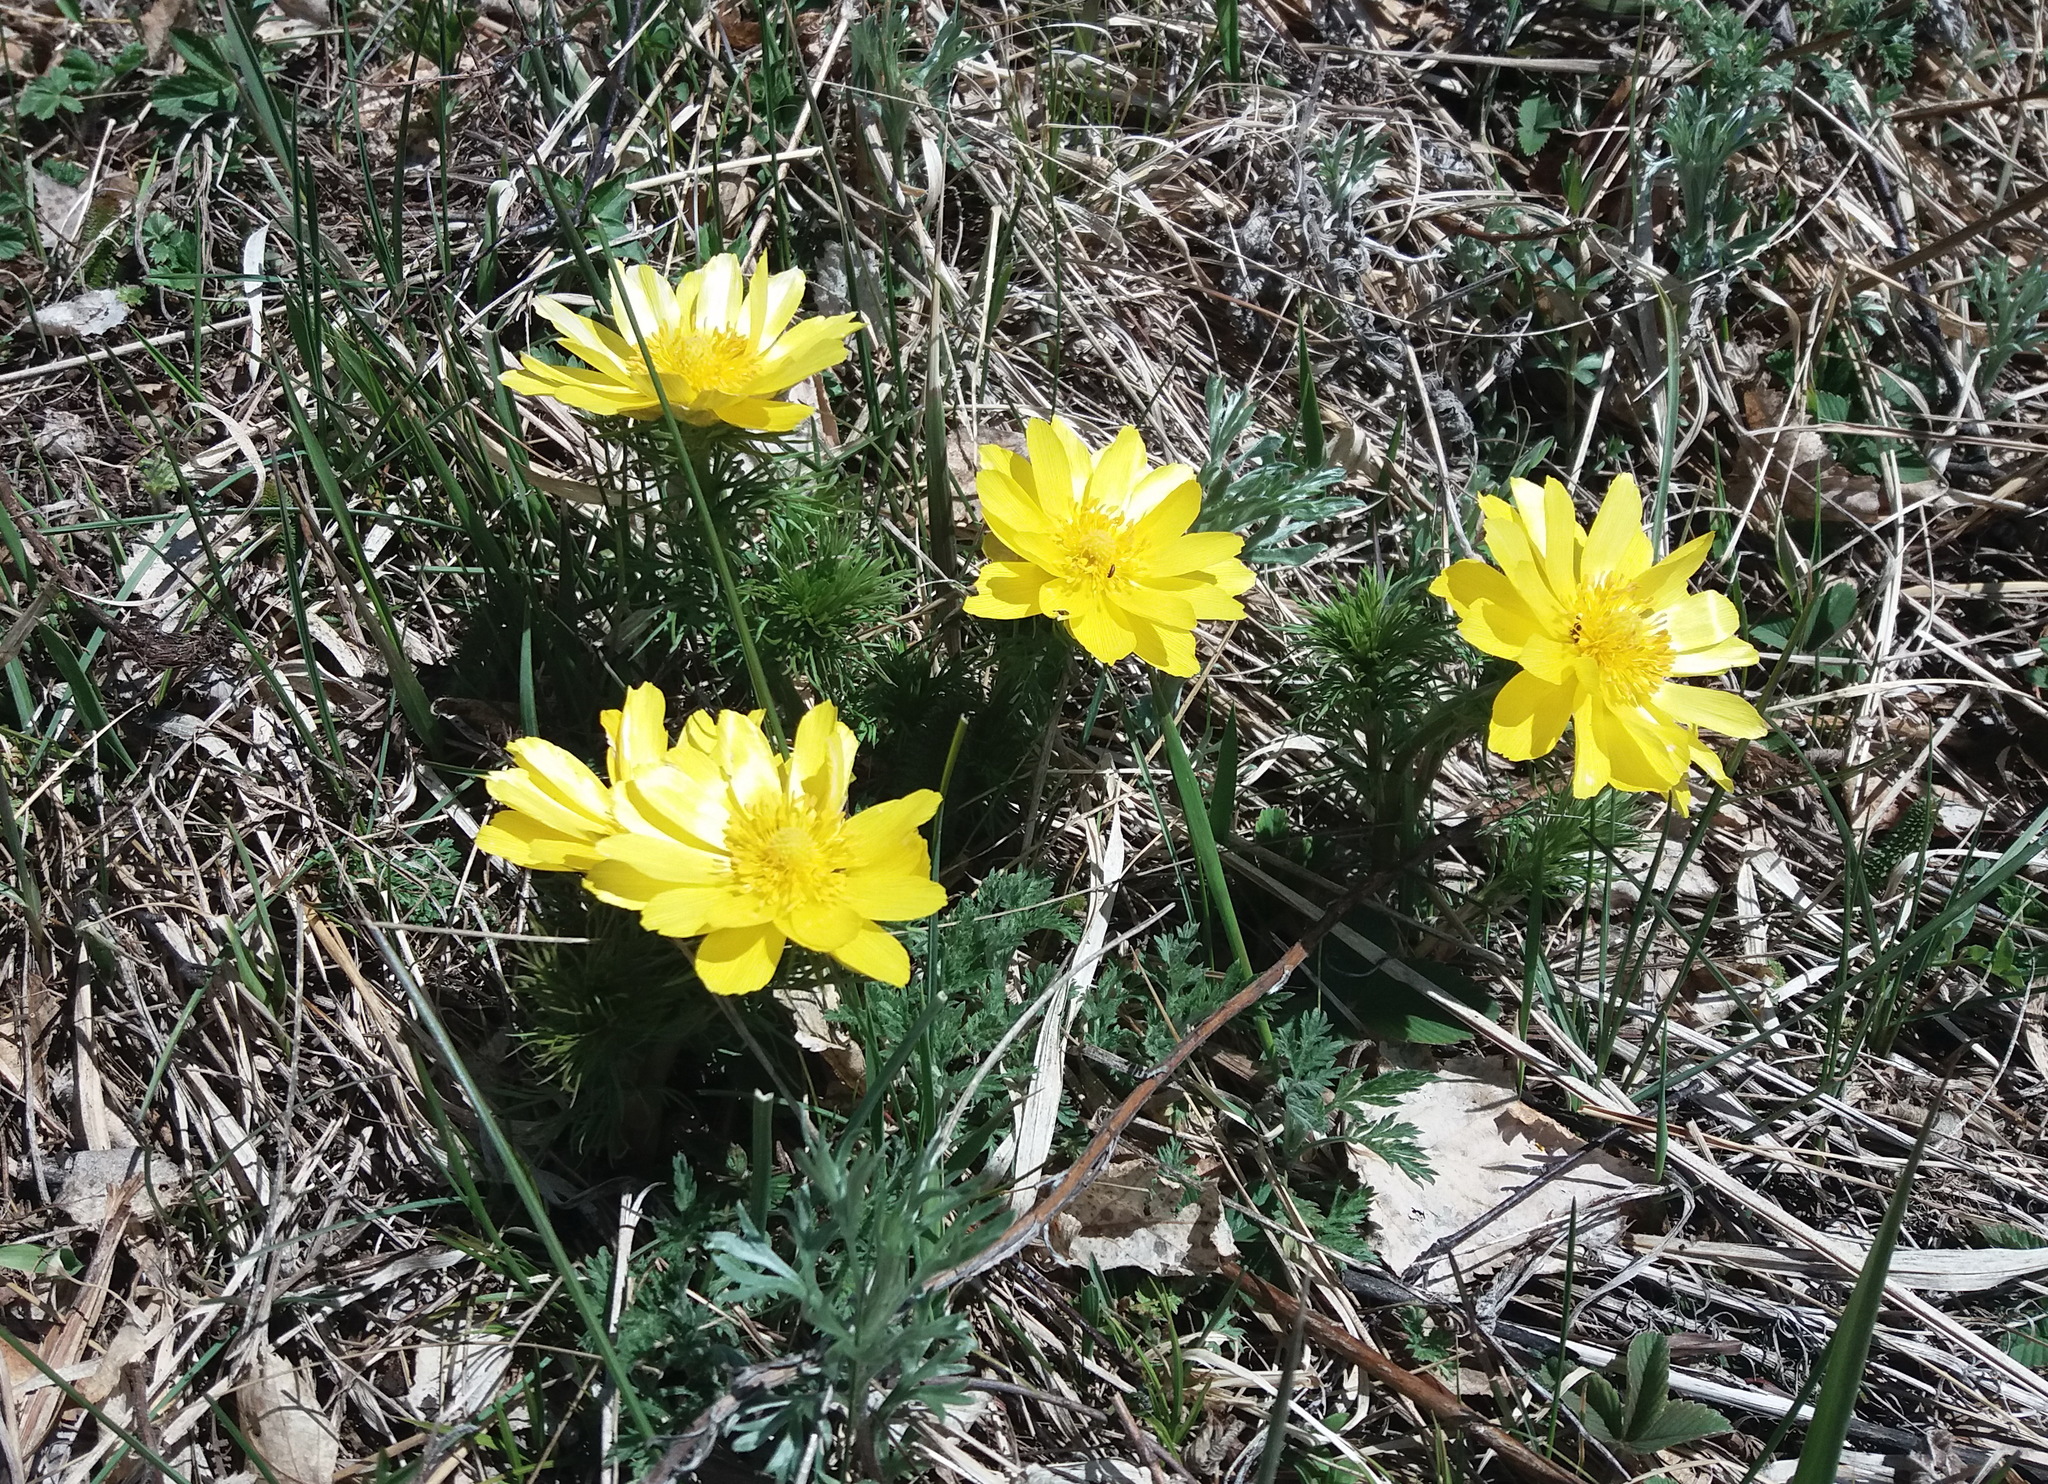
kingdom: Plantae
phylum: Tracheophyta
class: Magnoliopsida
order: Ranunculales
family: Ranunculaceae
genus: Adonis
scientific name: Adonis vernalis
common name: Yellow pheasants-eye
